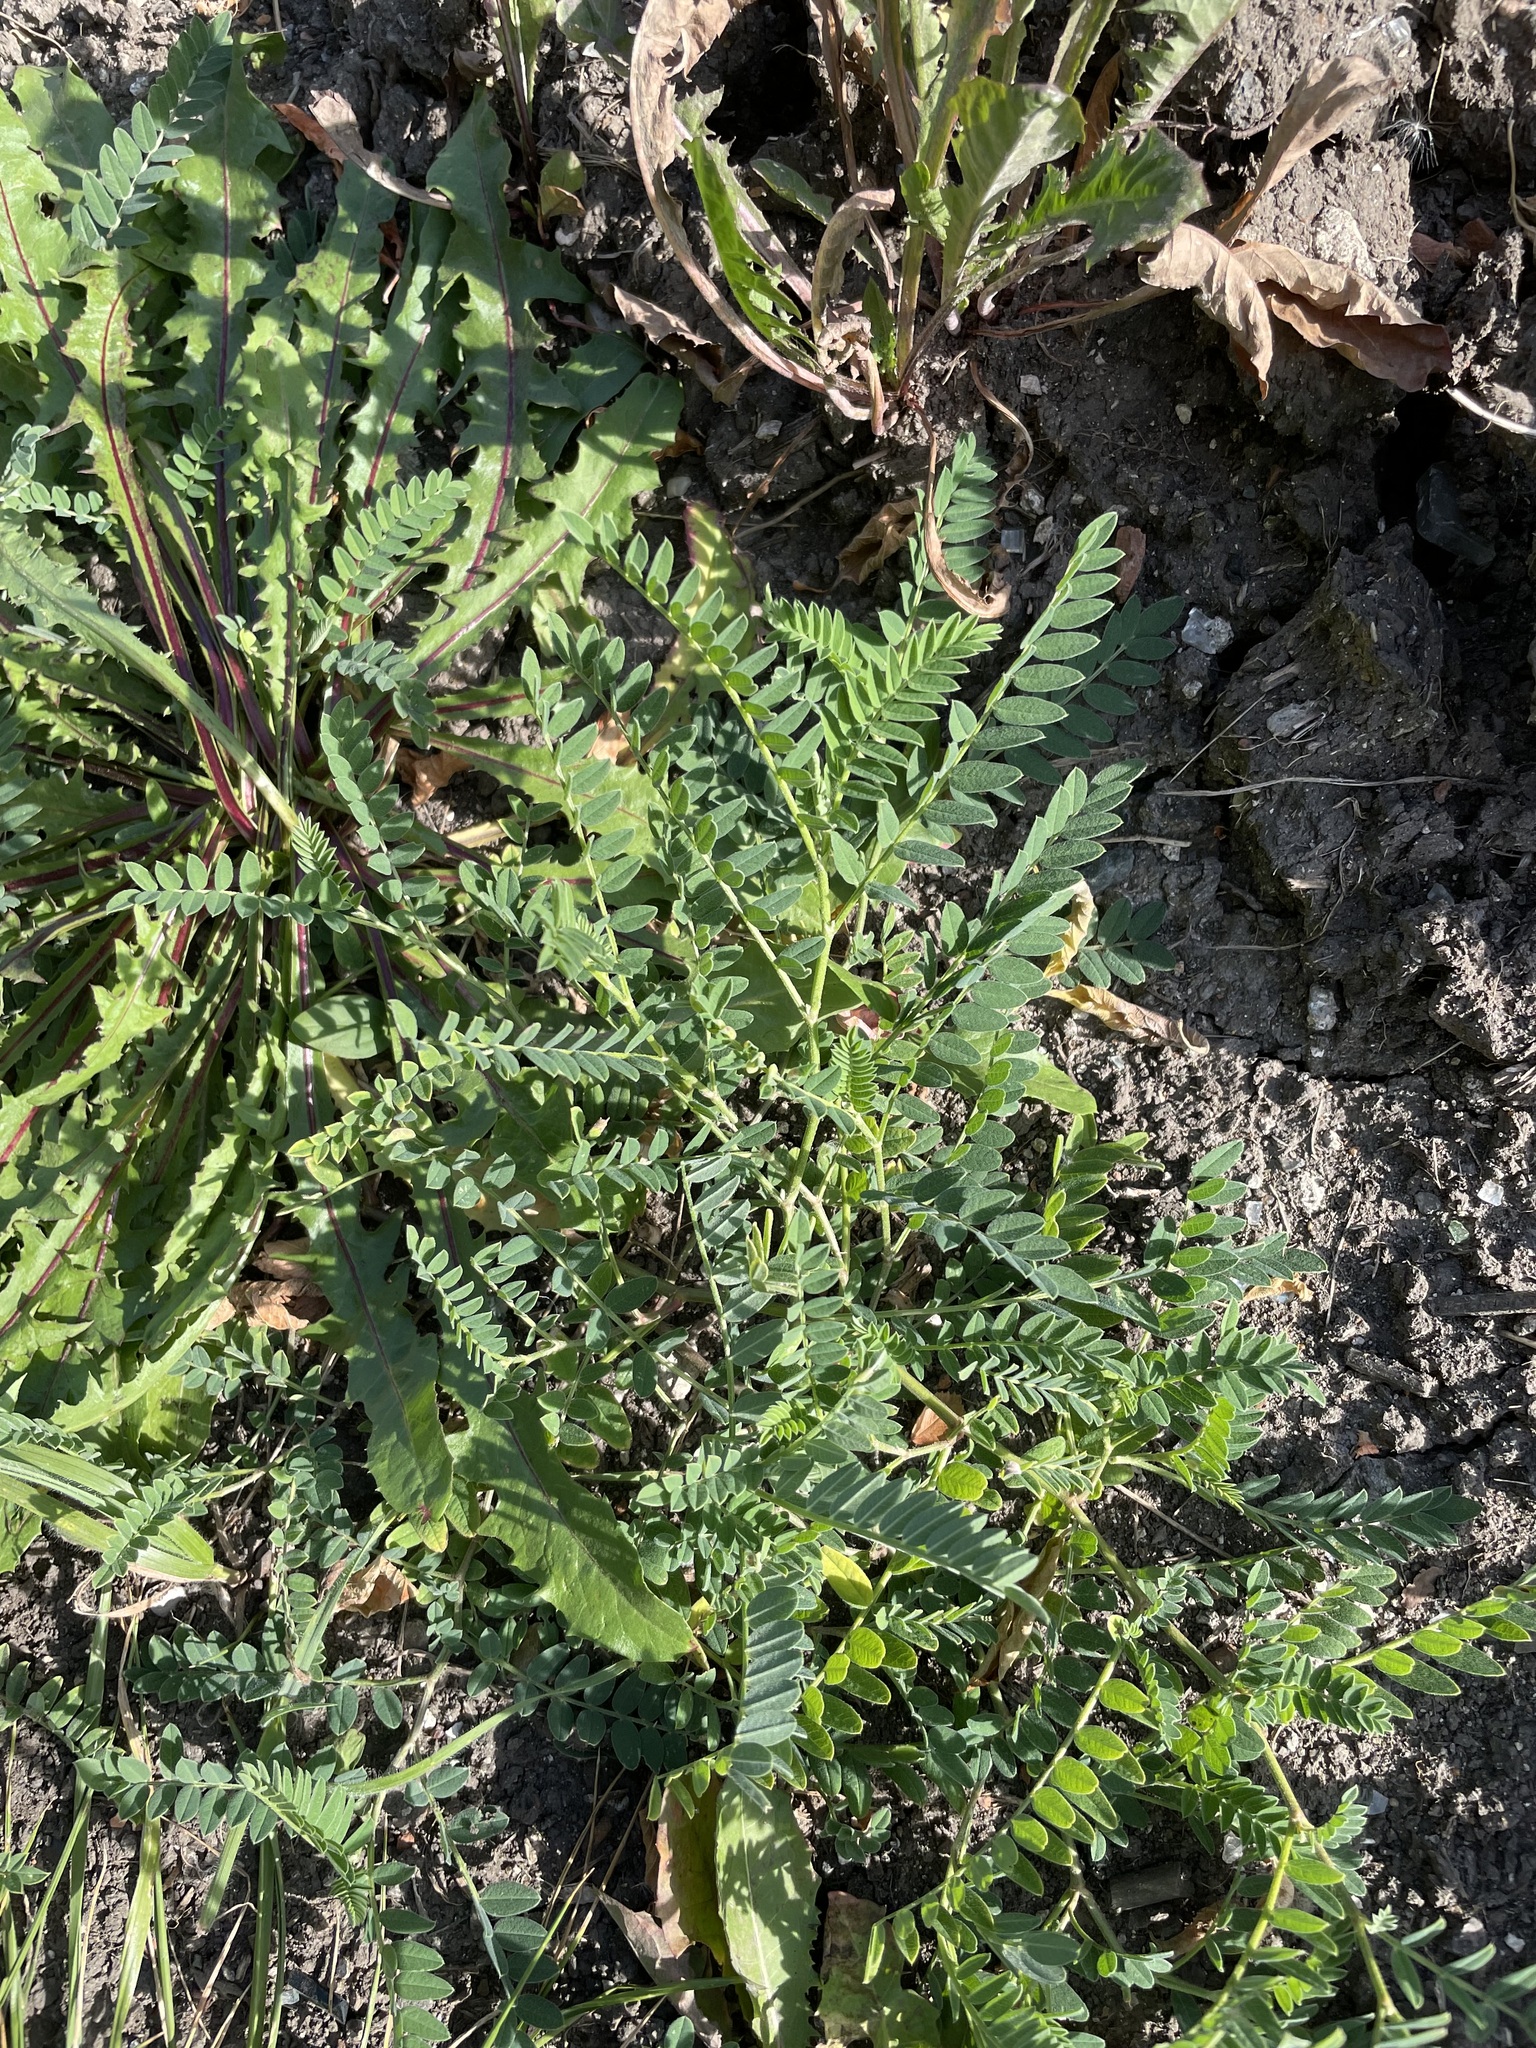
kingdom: Plantae
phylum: Tracheophyta
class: Magnoliopsida
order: Fabales
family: Fabaceae
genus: Astragalus
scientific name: Astragalus cicer
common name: Chick-pea milk-vetch
